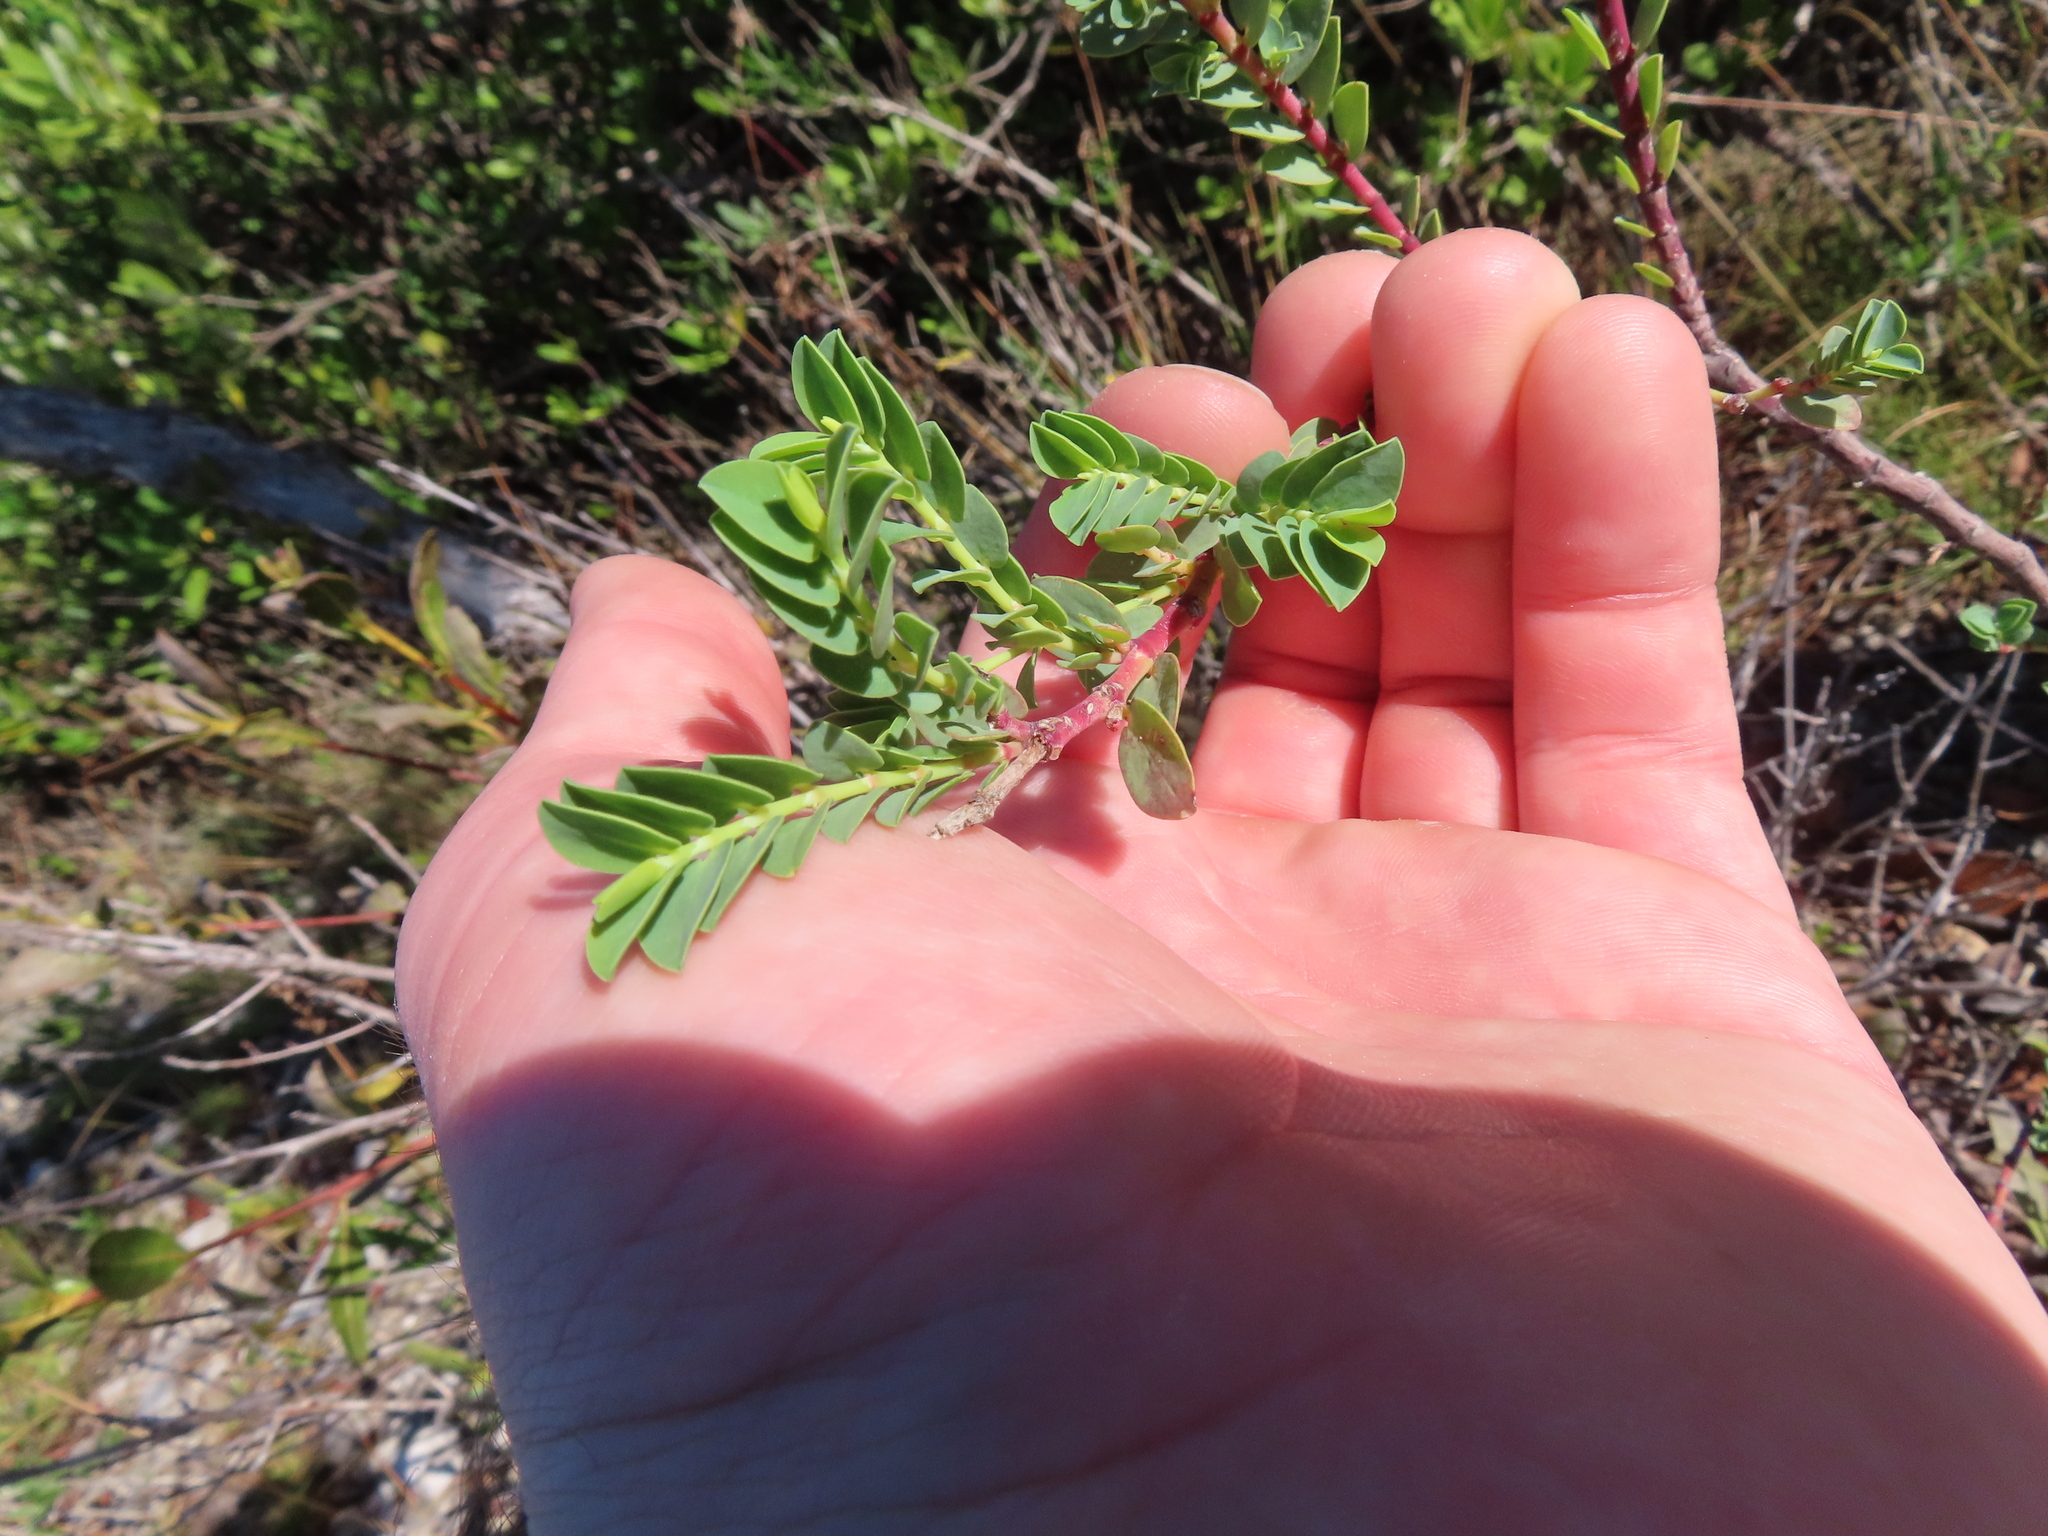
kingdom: Plantae
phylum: Tracheophyta
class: Magnoliopsida
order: Malpighiales
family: Euphorbiaceae
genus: Euphorbia
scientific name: Euphorbia mesembryanthemifolia
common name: Coastal beach sandmat
